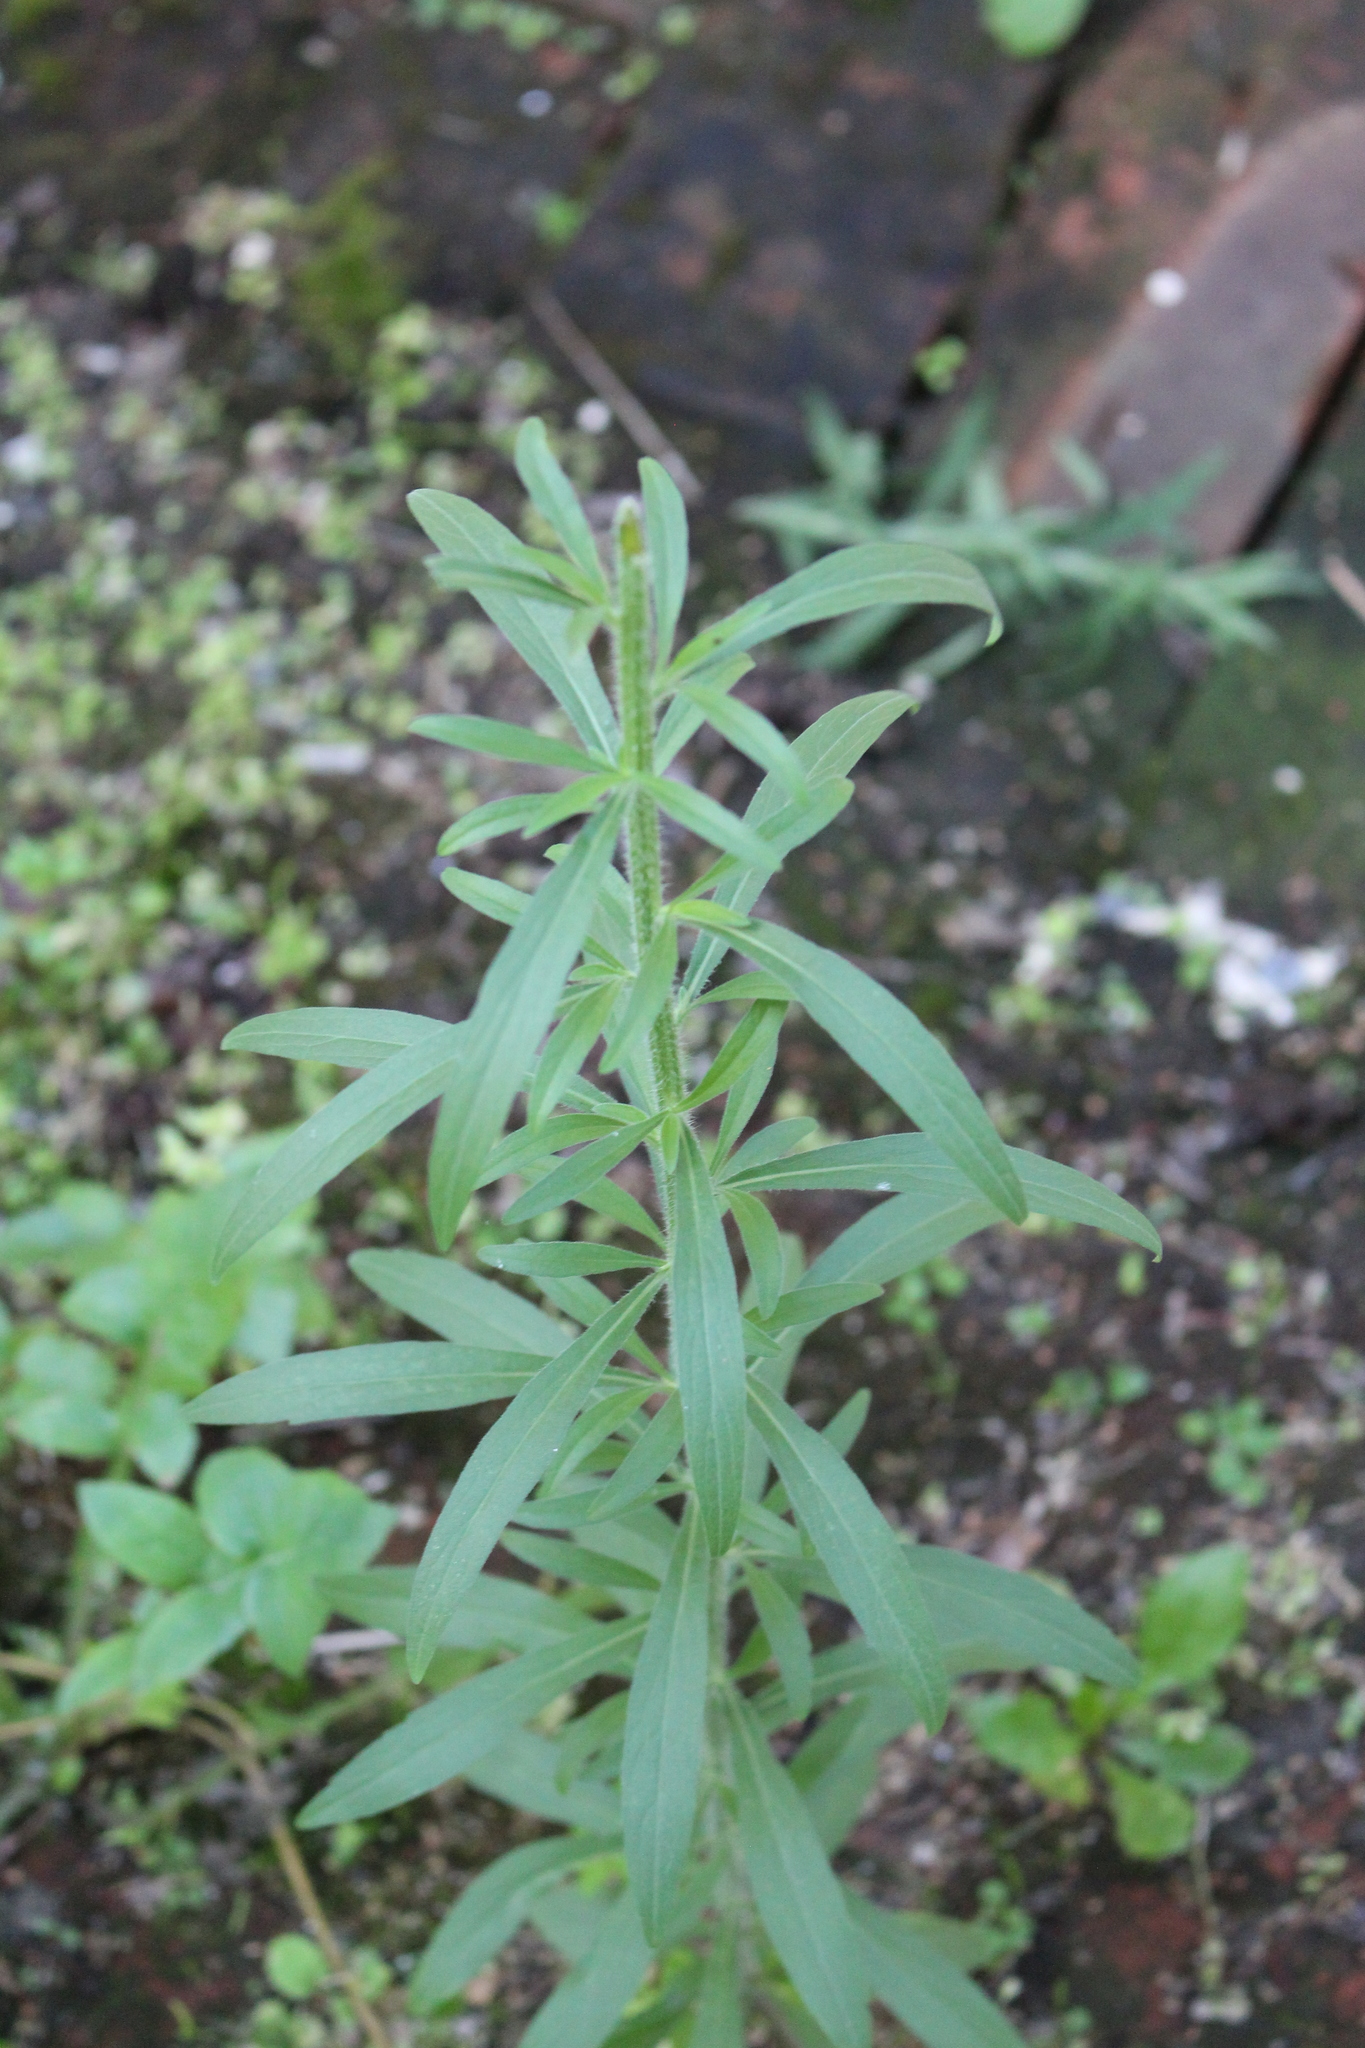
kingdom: Plantae
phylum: Tracheophyta
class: Magnoliopsida
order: Asterales
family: Asteraceae
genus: Erigeron
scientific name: Erigeron sumatrensis
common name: Daisy
